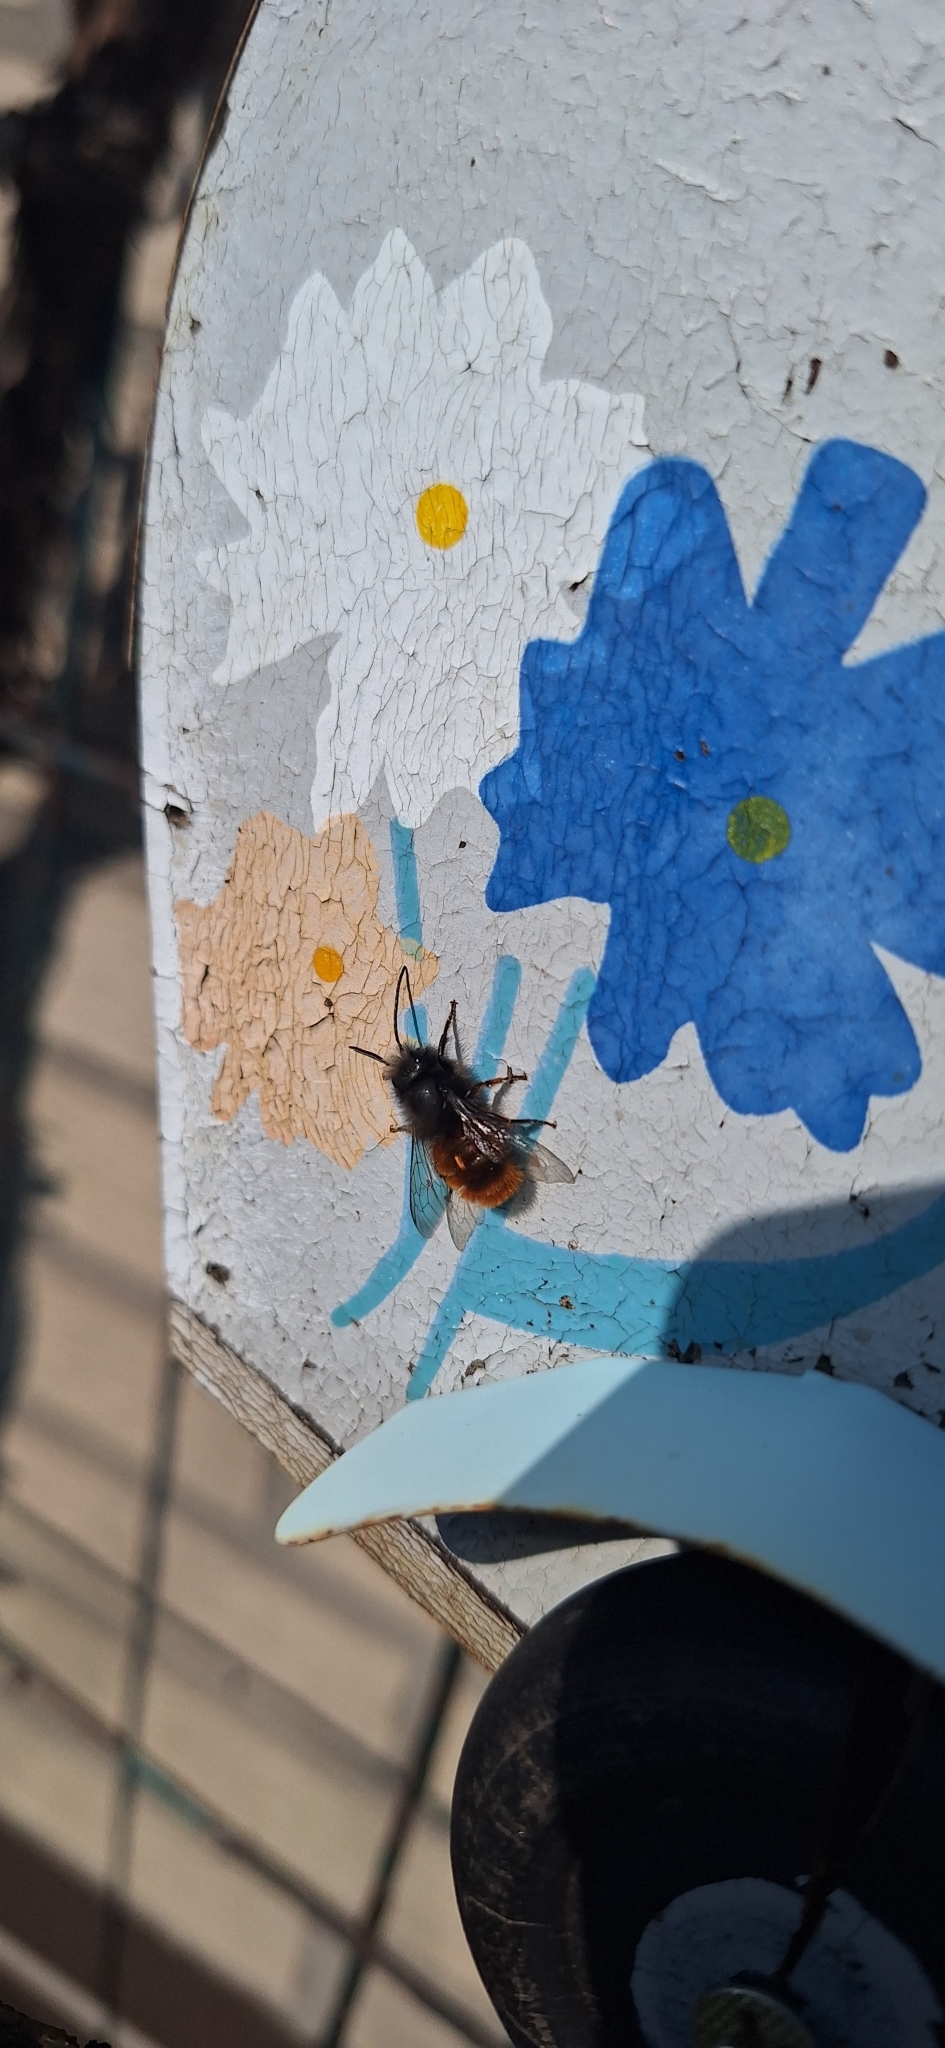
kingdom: Animalia
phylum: Arthropoda
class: Insecta
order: Hymenoptera
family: Megachilidae
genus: Osmia
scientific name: Osmia cornuta
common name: Mason bee
